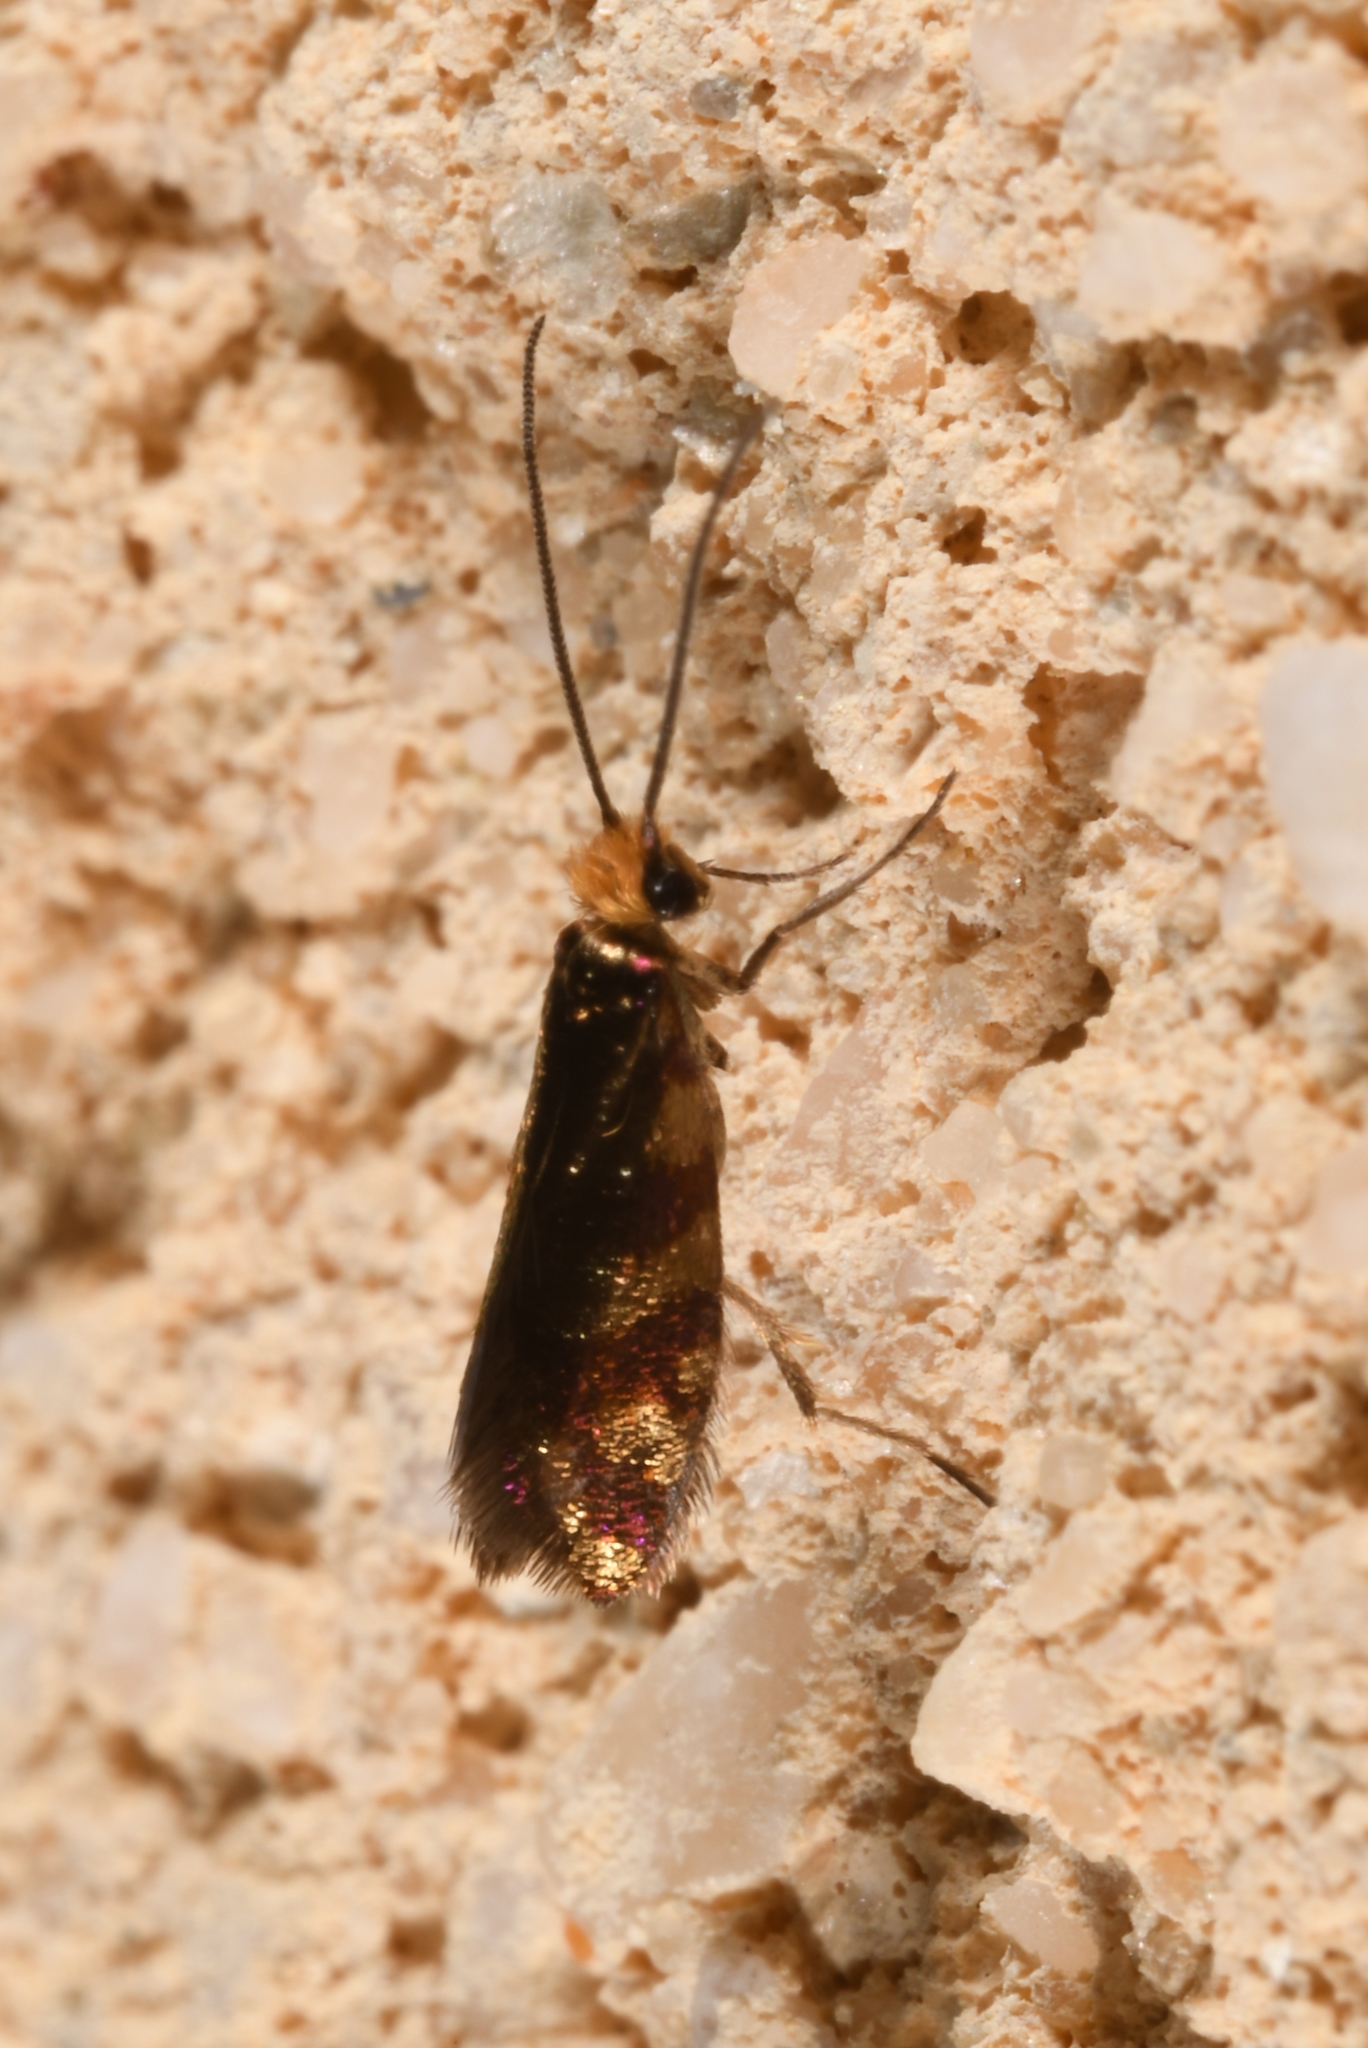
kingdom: Animalia
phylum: Arthropoda
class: Insecta
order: Lepidoptera
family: Micropterigidae
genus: Micropterix
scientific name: Micropterix tunbergella
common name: Red-barred gold
